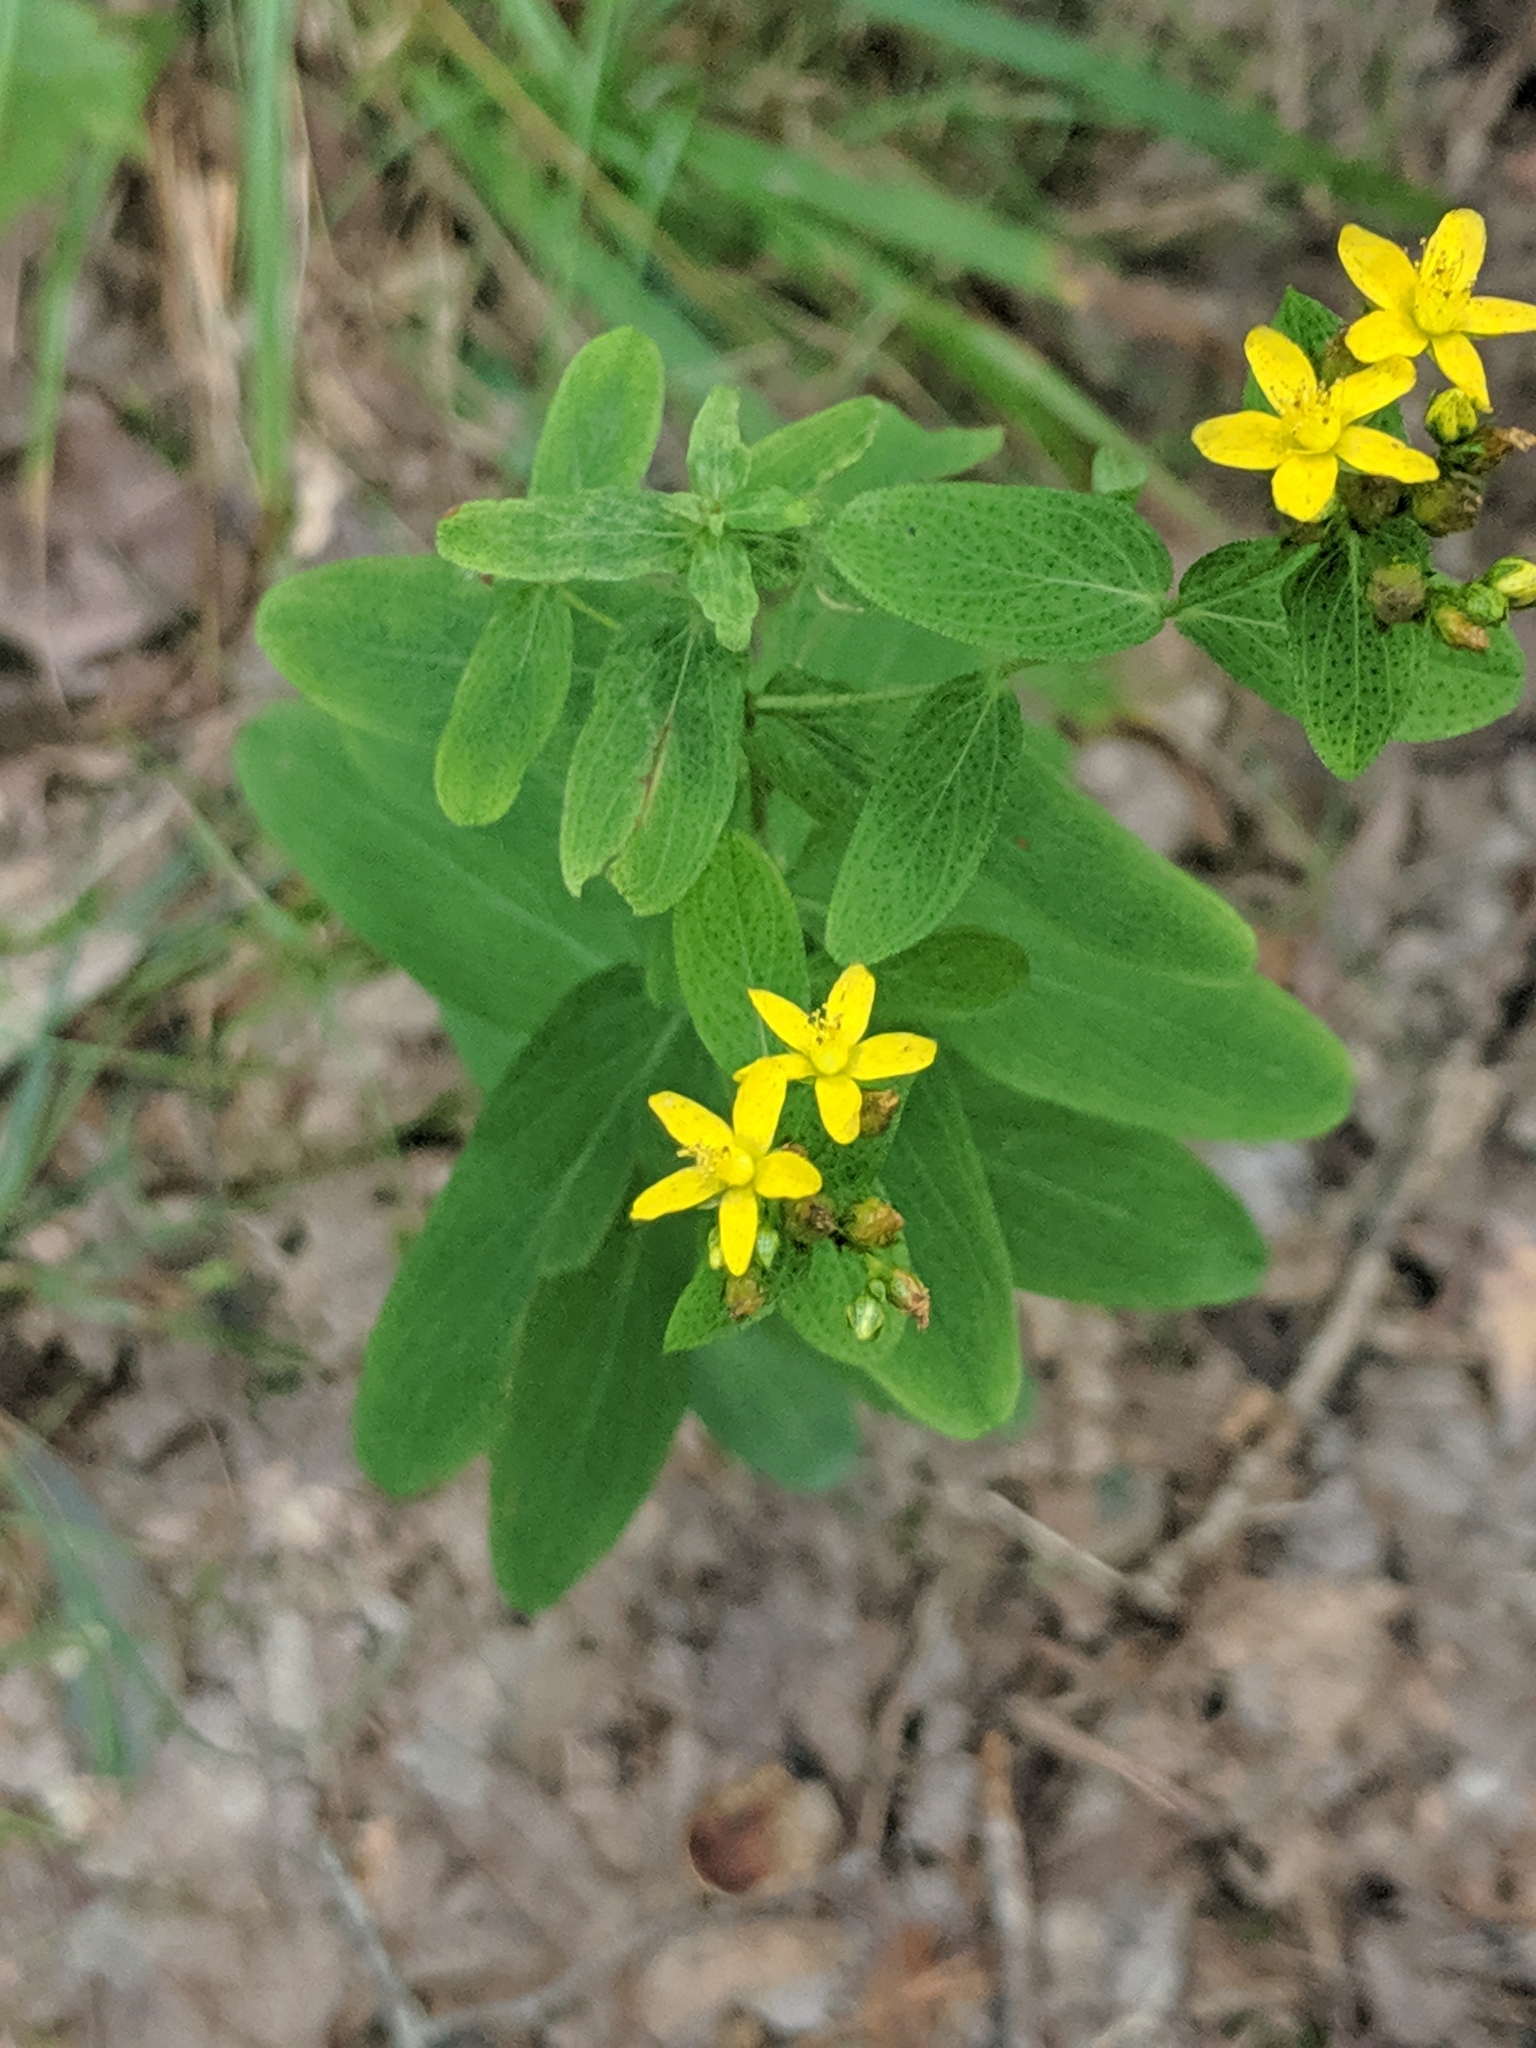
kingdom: Plantae
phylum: Tracheophyta
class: Magnoliopsida
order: Malpighiales
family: Hypericaceae
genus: Hypericum
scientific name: Hypericum punctatum
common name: Spotted st. john's-wort
